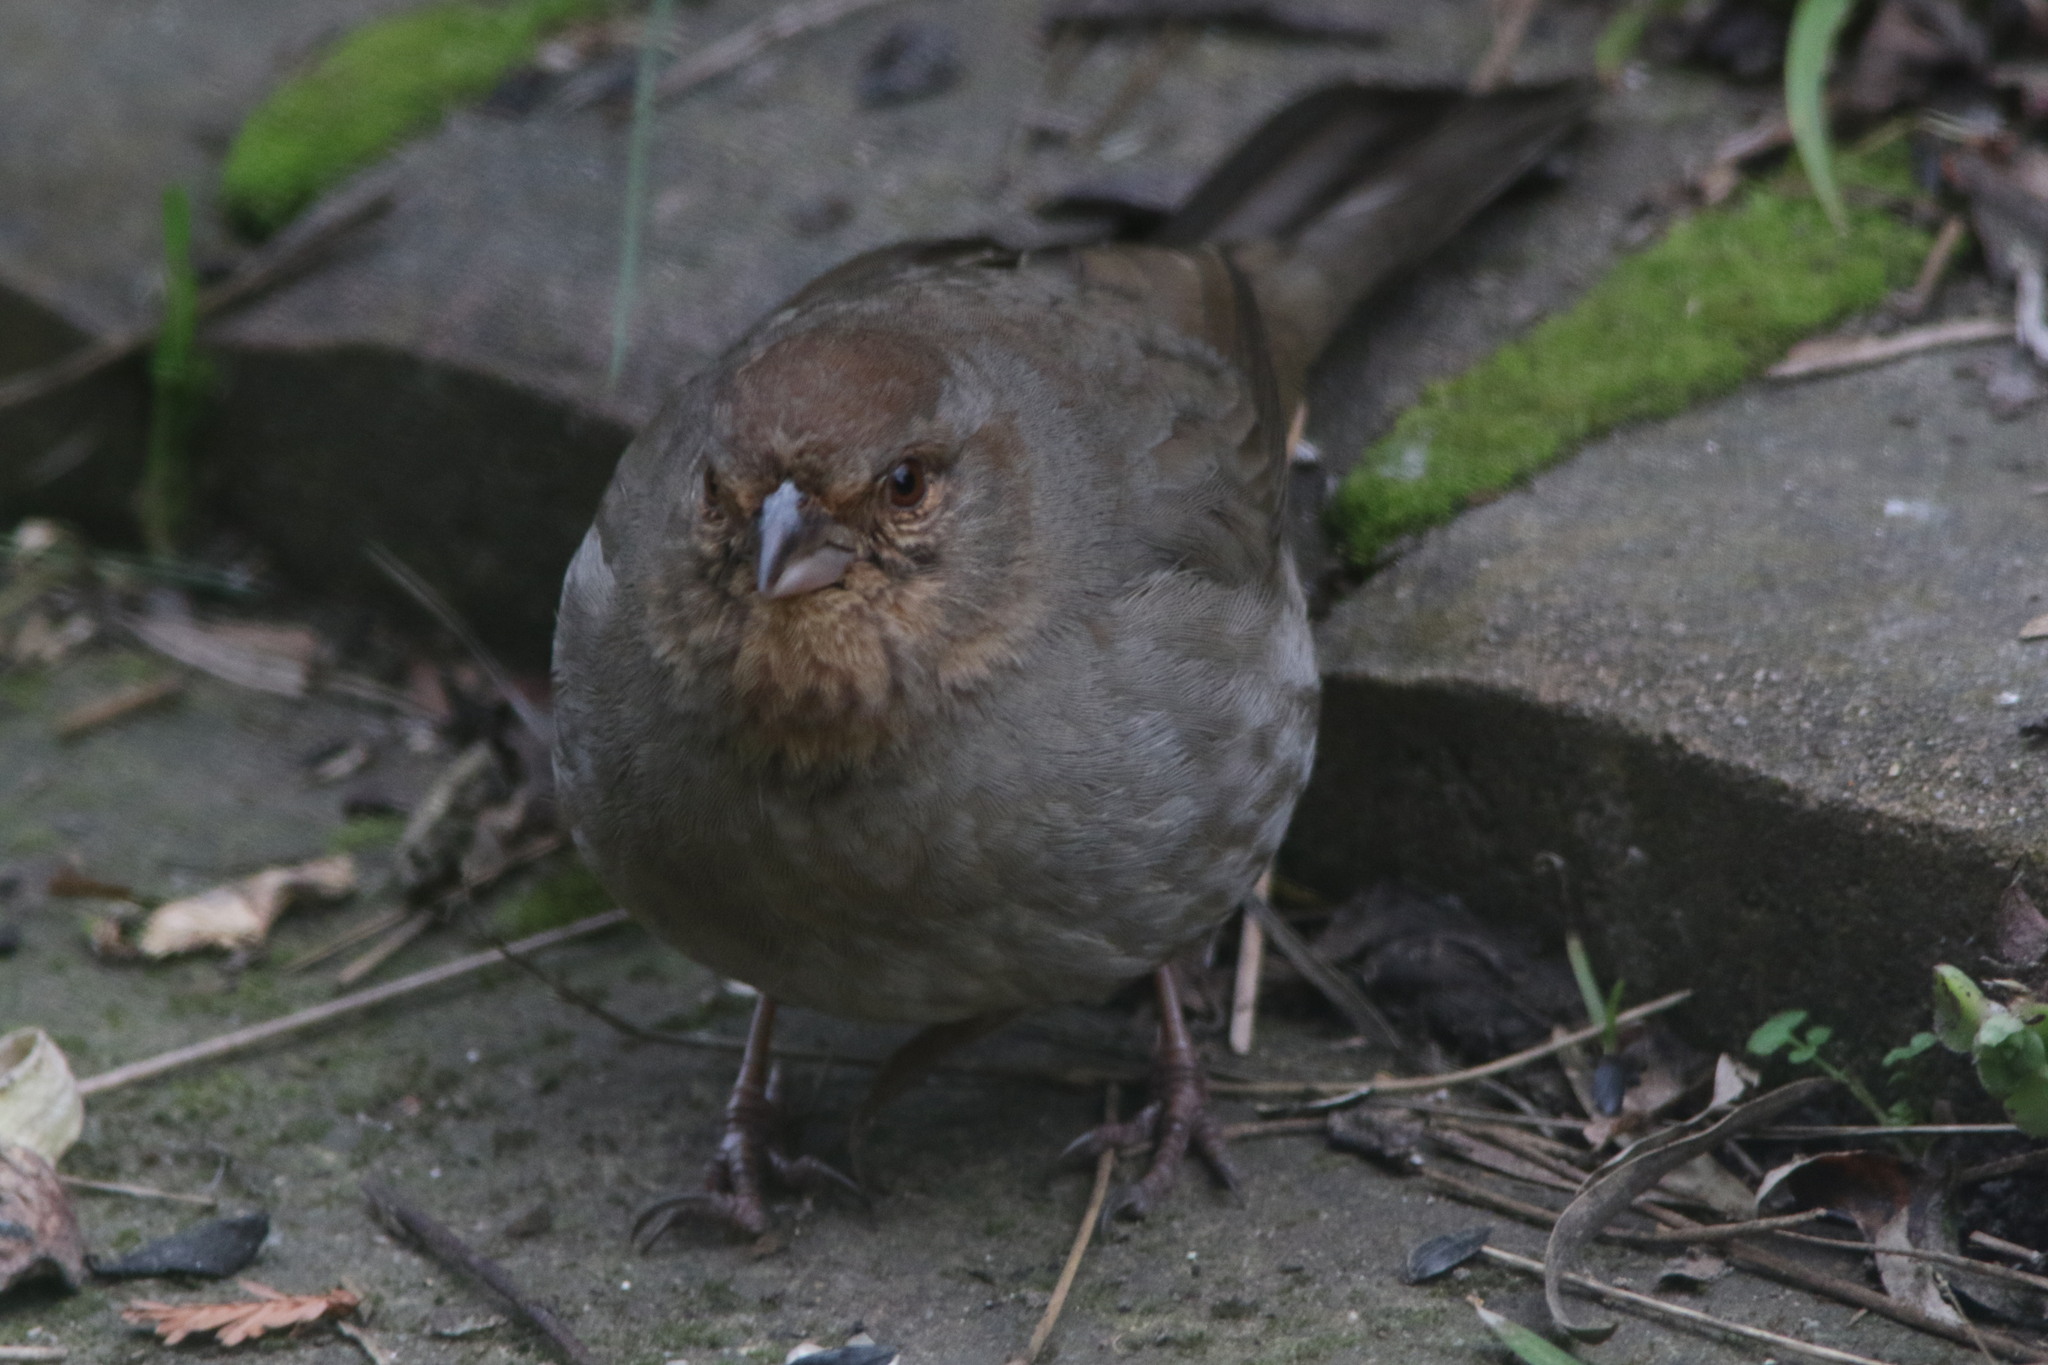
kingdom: Animalia
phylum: Chordata
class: Aves
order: Passeriformes
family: Passerellidae
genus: Melozone
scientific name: Melozone crissalis
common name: California towhee
